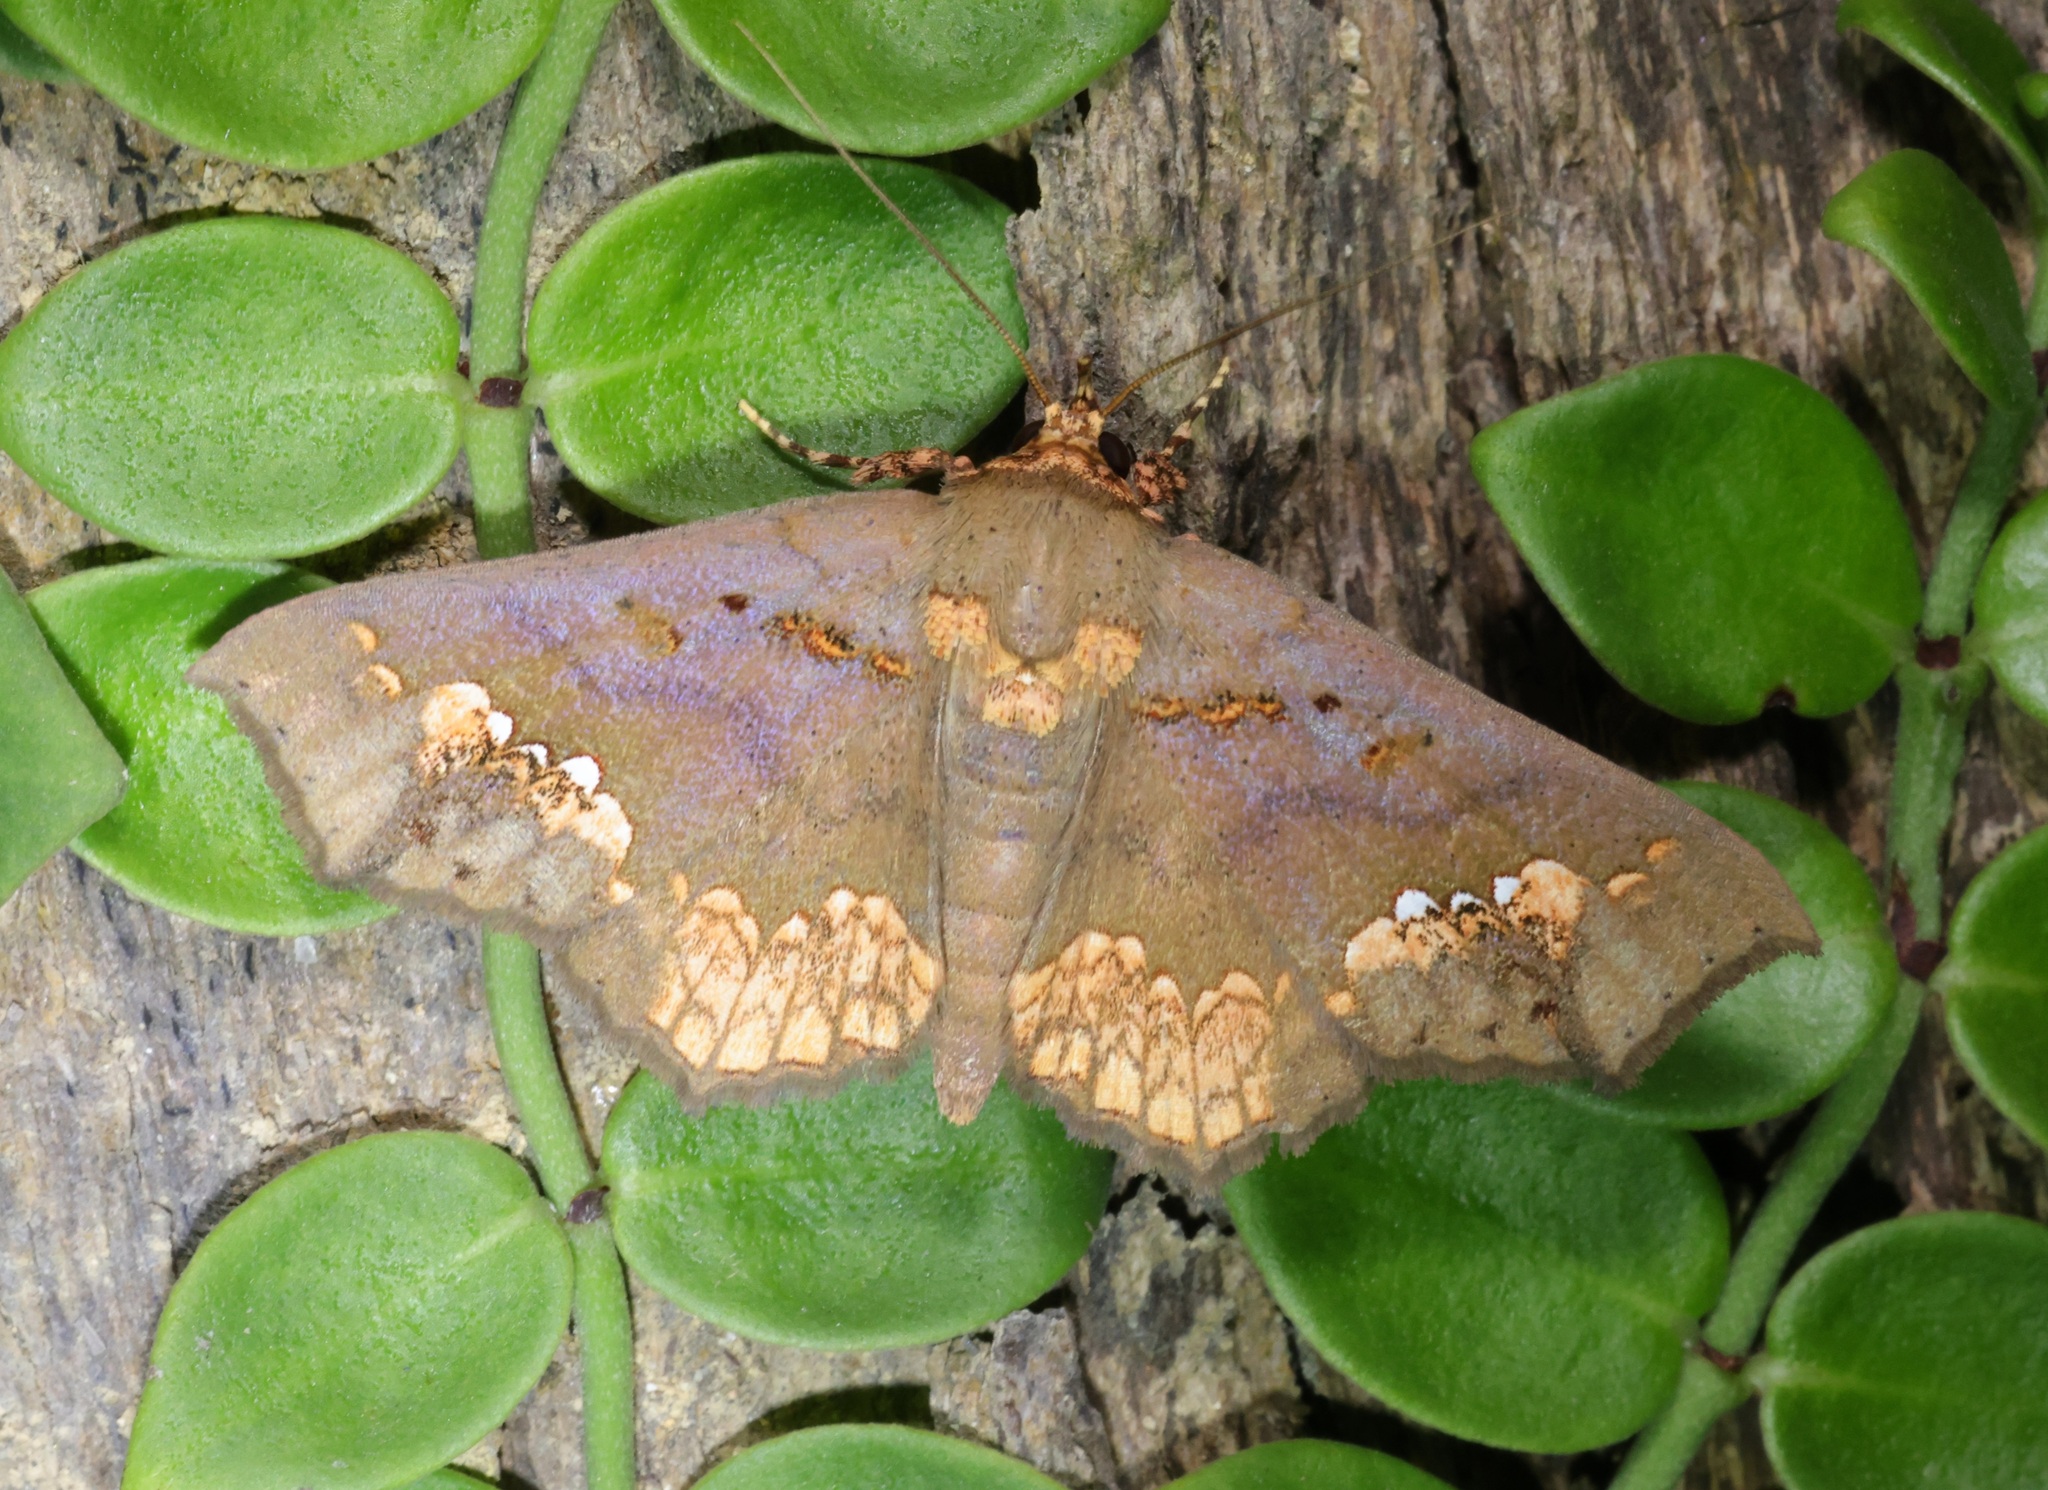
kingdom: Animalia
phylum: Arthropoda
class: Insecta
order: Lepidoptera
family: Erebidae
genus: Lopharthrum
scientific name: Lopharthrum comprimens
